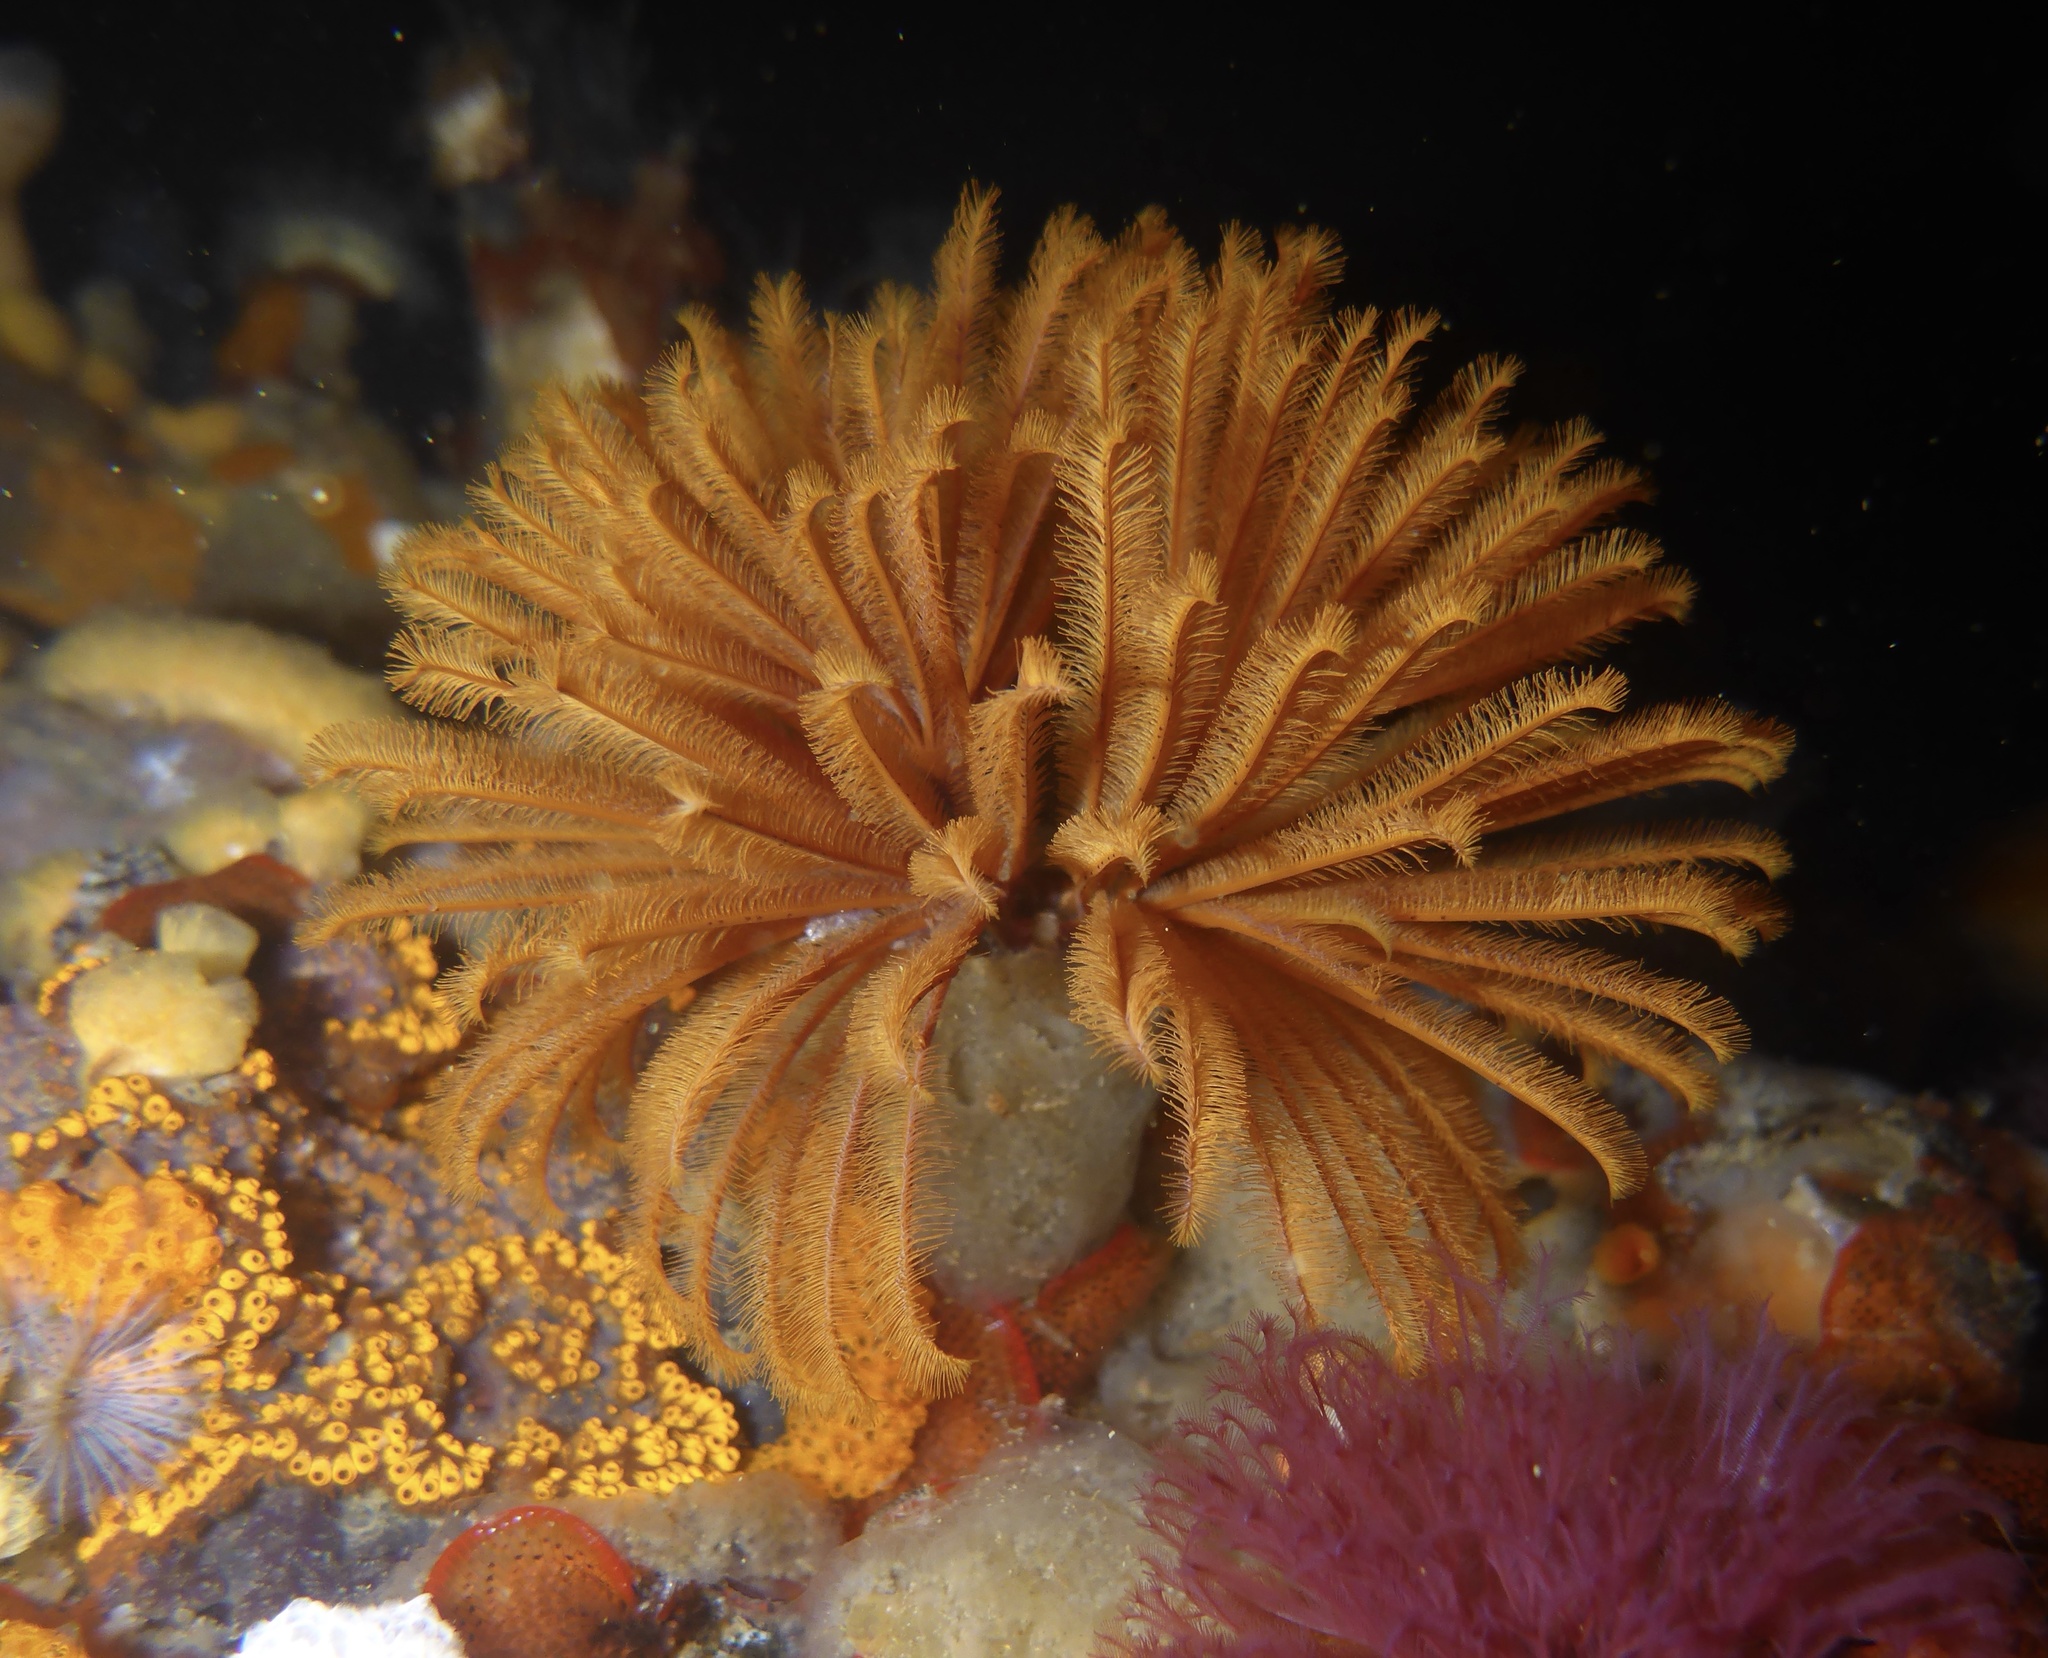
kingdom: Animalia
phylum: Annelida
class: Polychaeta
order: Sabellida
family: Sabellidae
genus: Eudistylia
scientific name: Eudistylia polymorpha
